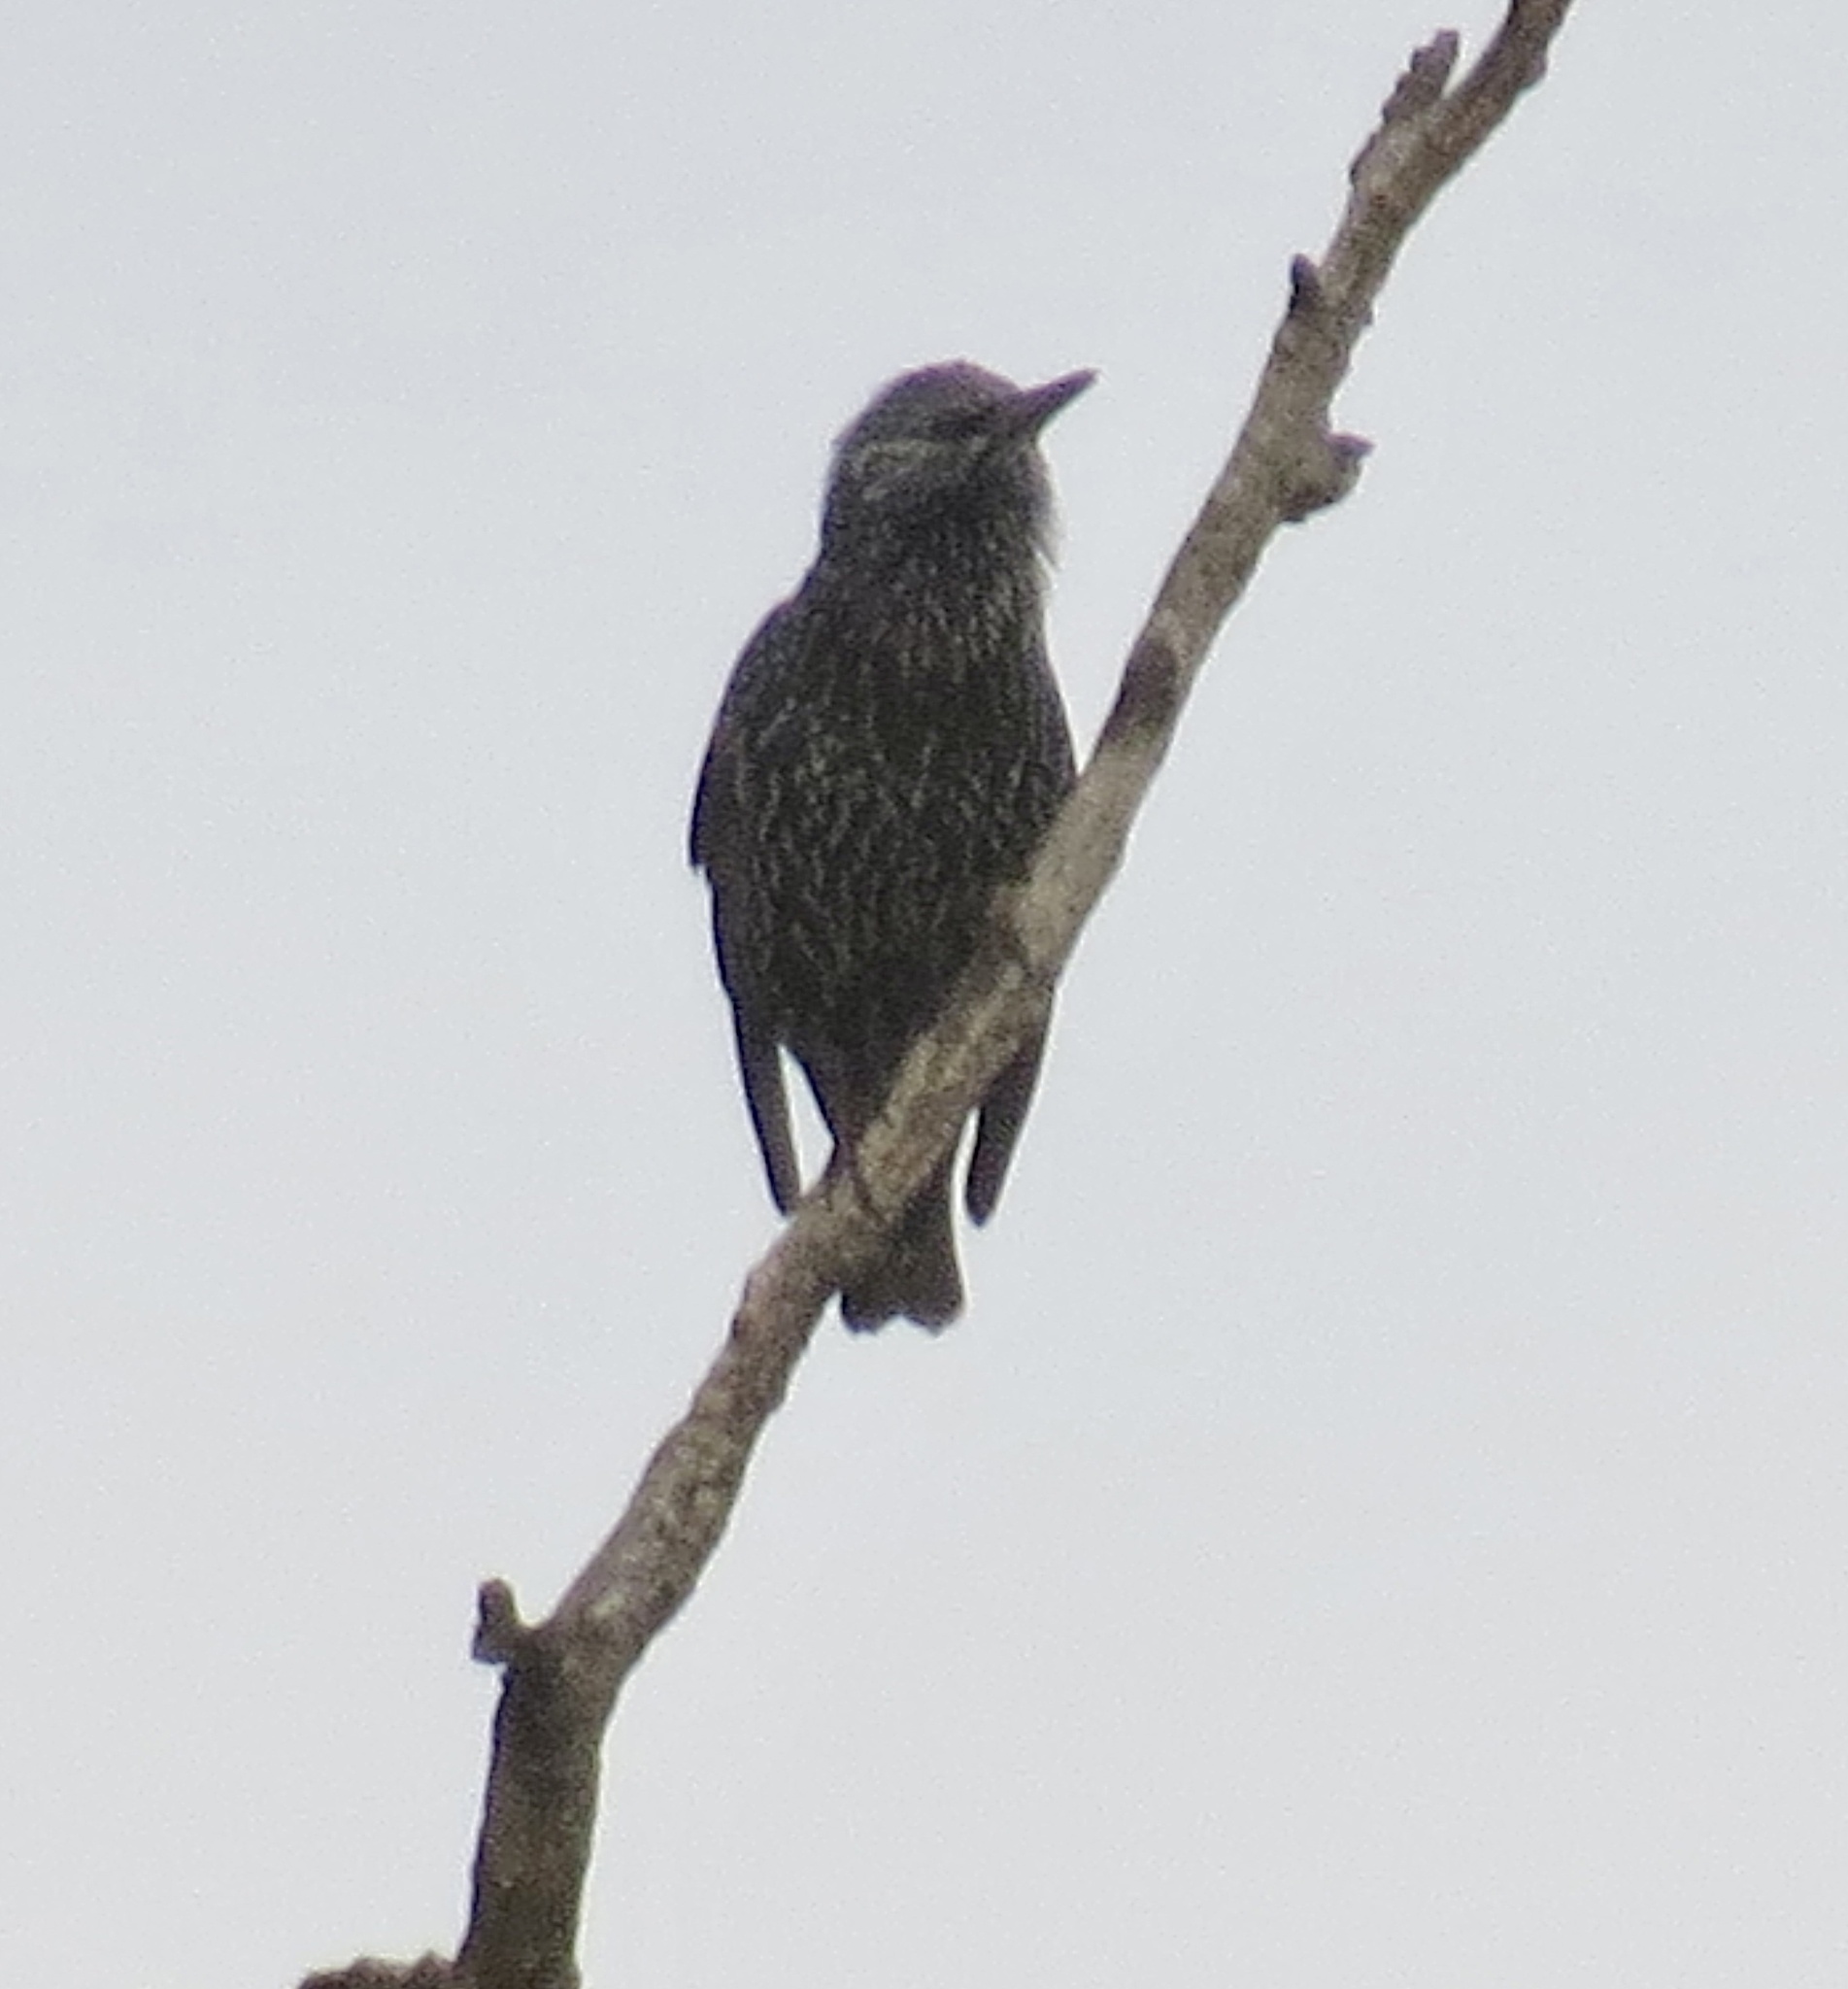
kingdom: Animalia
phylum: Chordata
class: Aves
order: Passeriformes
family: Sturnidae
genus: Sturnus
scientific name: Sturnus vulgaris
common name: Common starling
